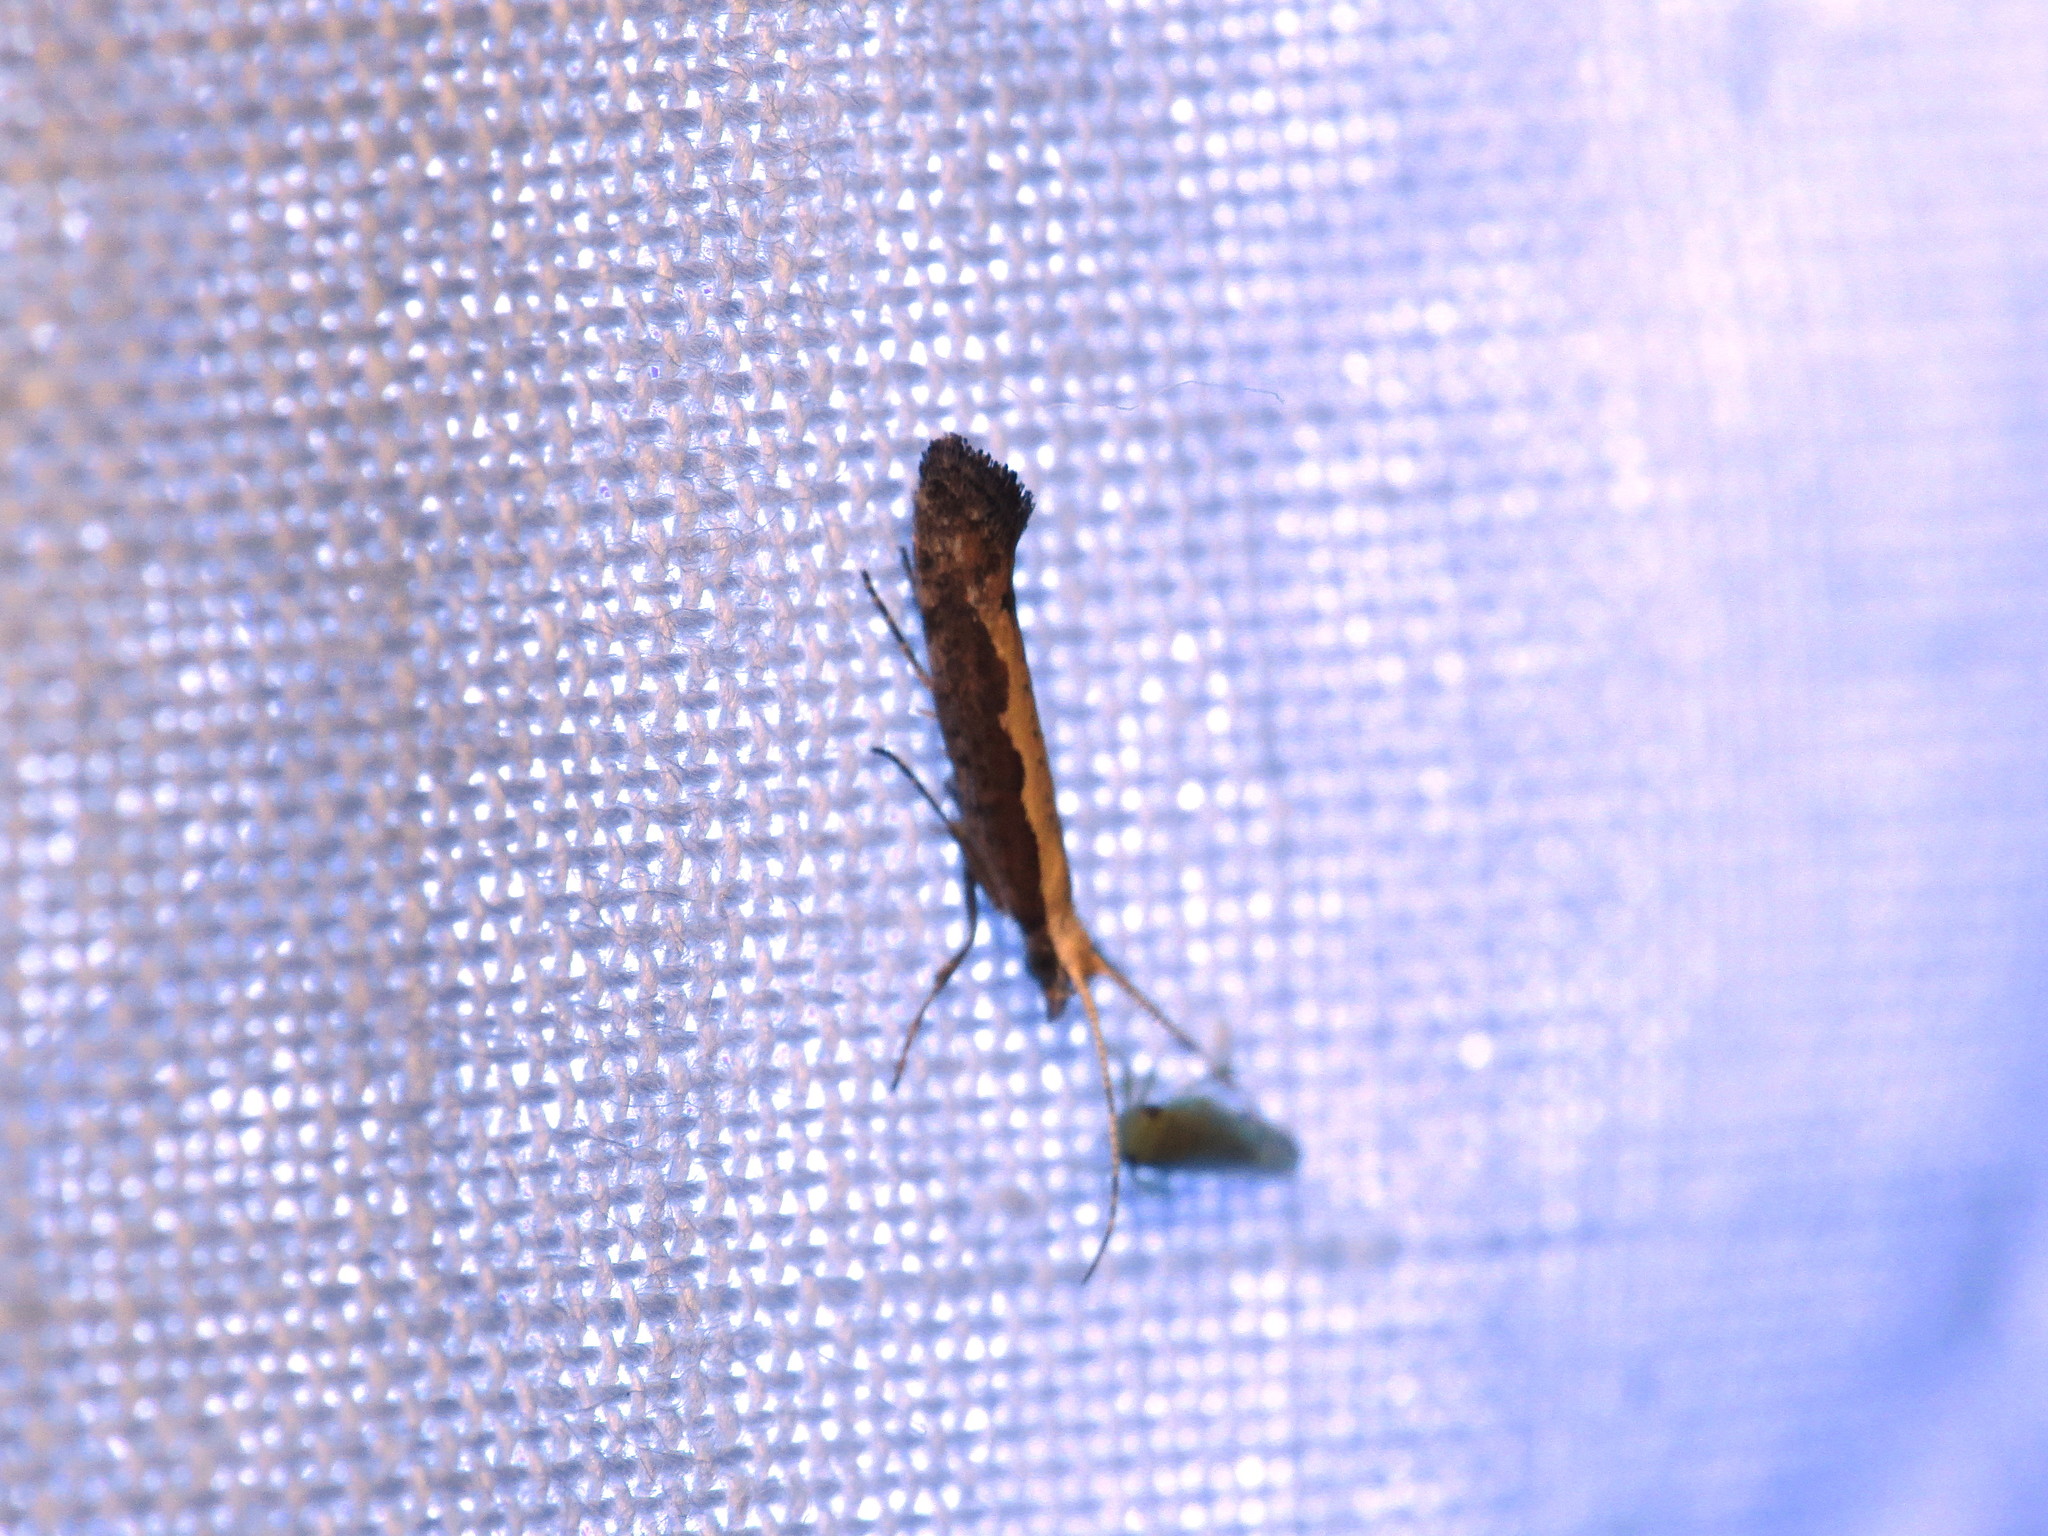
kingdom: Animalia
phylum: Arthropoda
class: Insecta
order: Lepidoptera
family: Plutellidae
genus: Plutella
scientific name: Plutella xylostella
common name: Diamond-back moth
